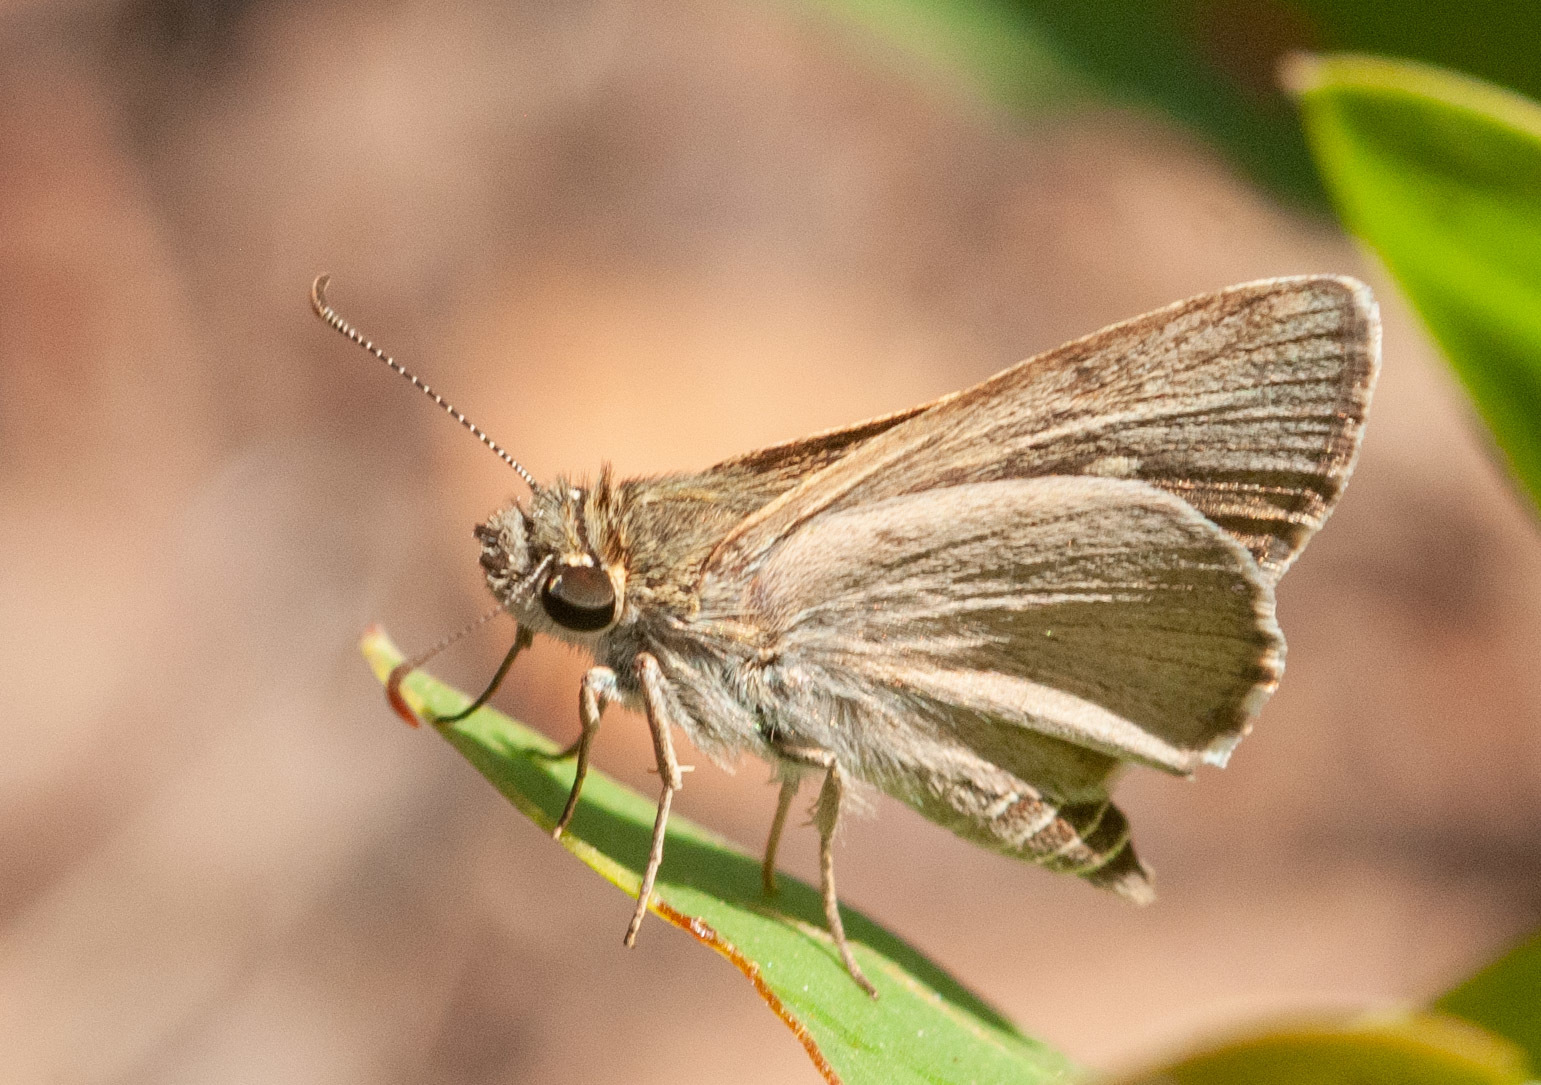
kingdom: Animalia
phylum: Arthropoda
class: Insecta
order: Lepidoptera
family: Hesperiidae
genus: Hesperilla
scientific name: Hesperilla crypsigramma
